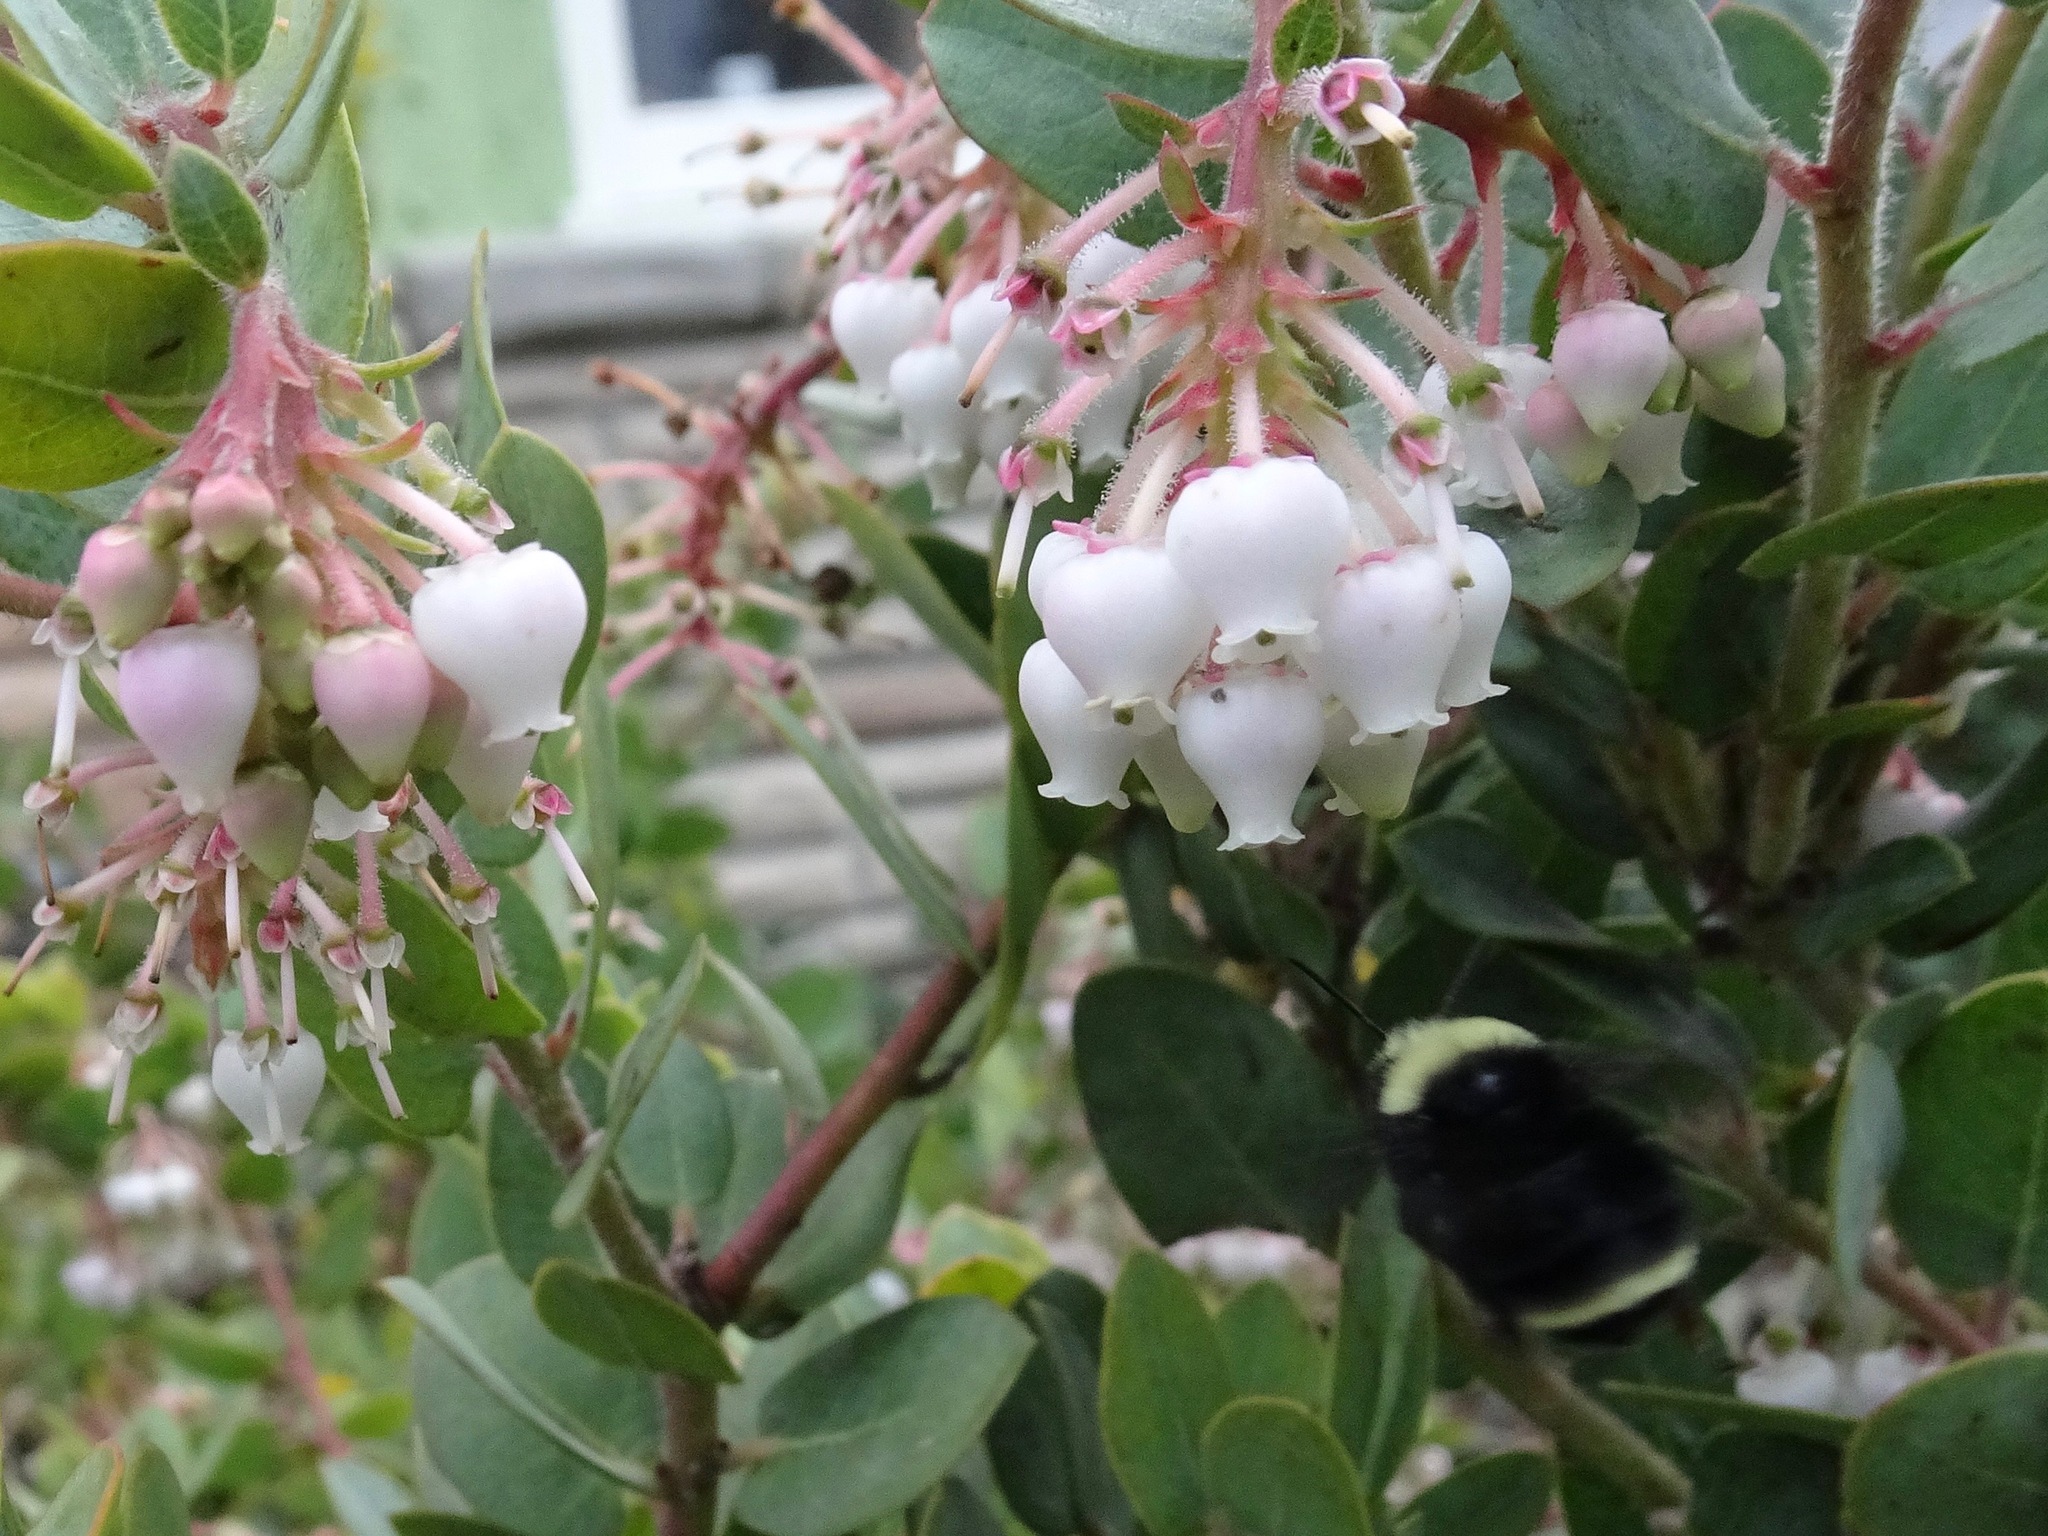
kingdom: Animalia
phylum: Arthropoda
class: Insecta
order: Hymenoptera
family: Apidae
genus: Bombus
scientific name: Bombus vosnesenskii
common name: Vosnesensky bumble bee
